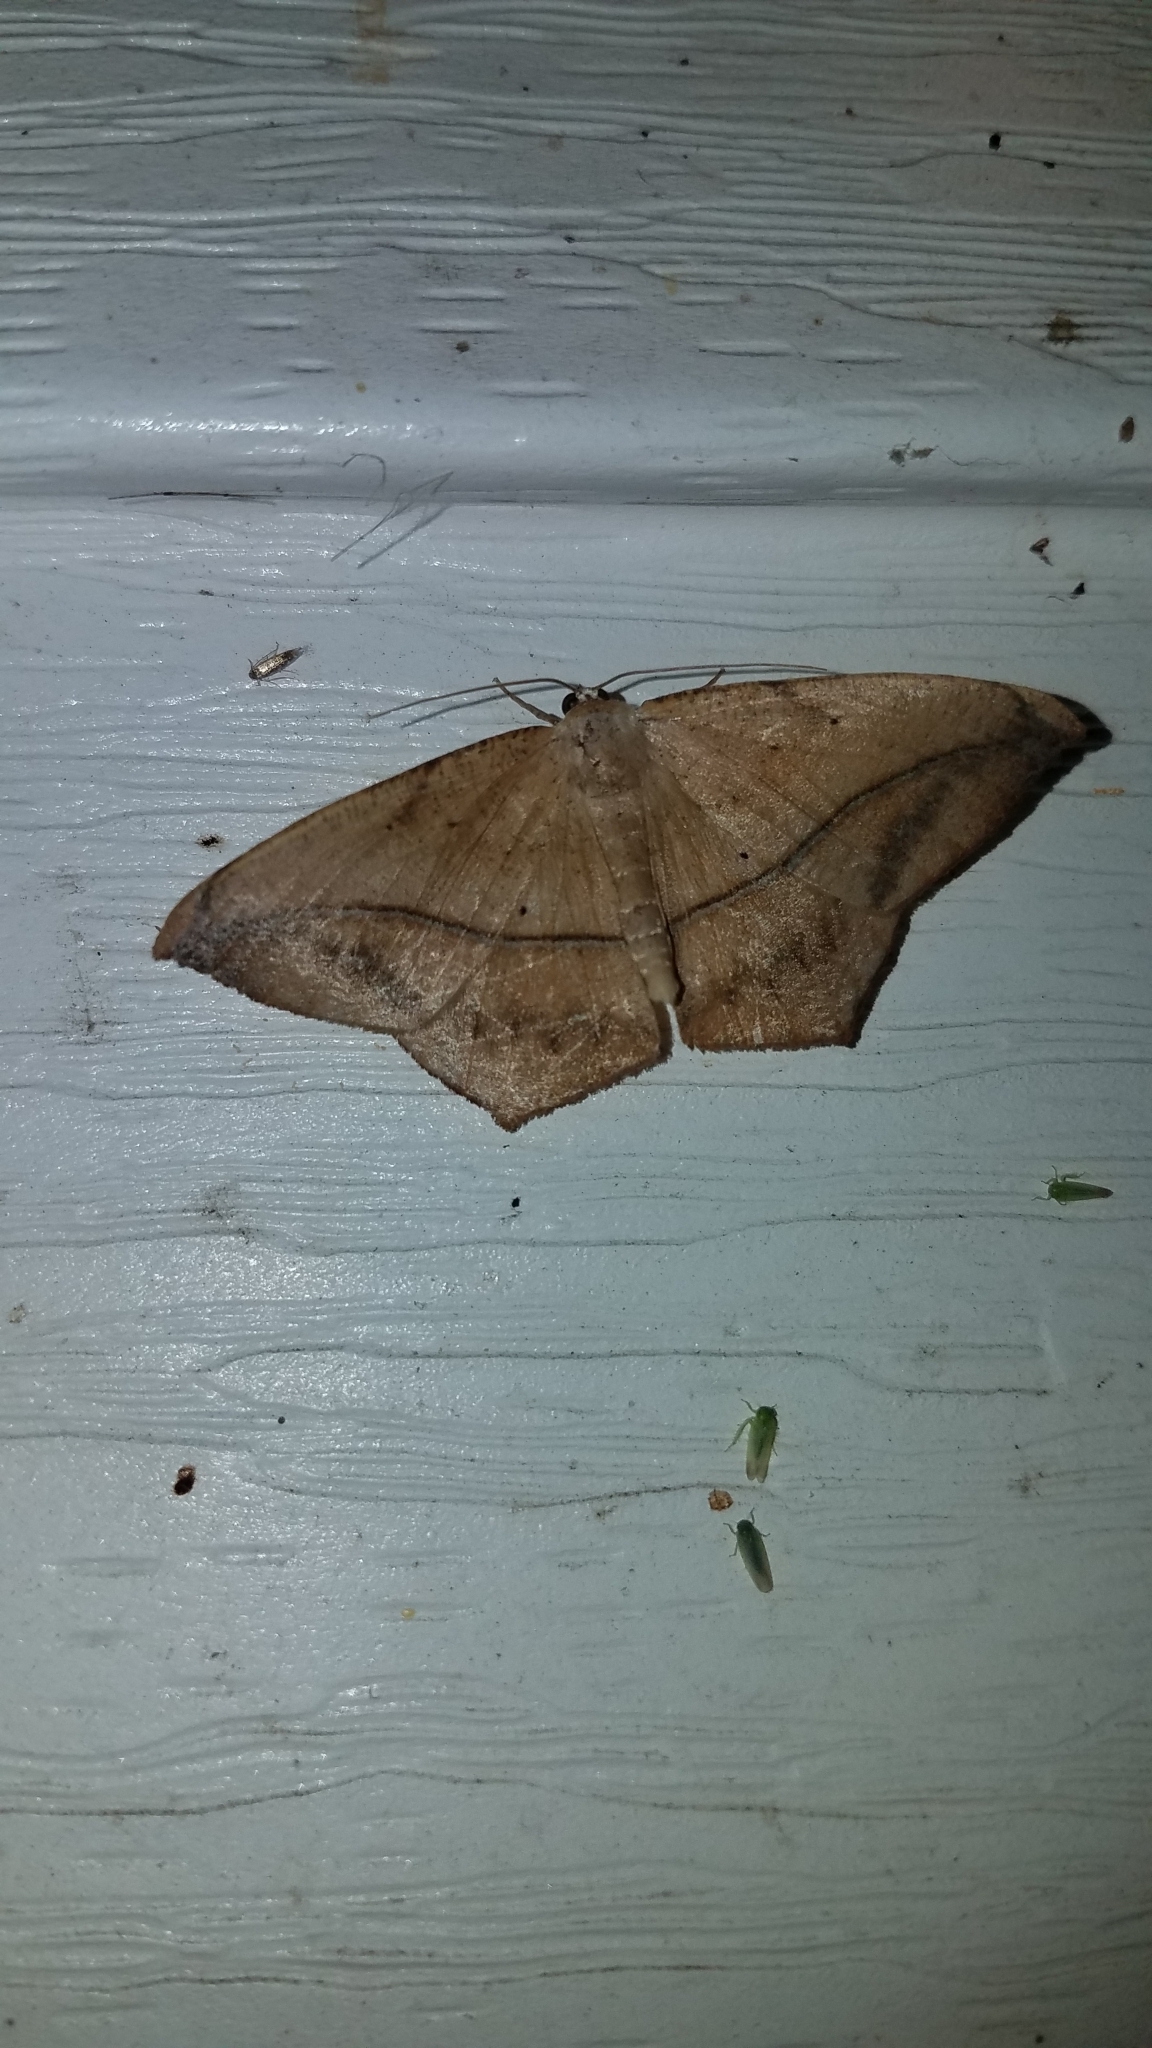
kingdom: Animalia
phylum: Arthropoda
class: Insecta
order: Lepidoptera
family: Geometridae
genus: Prochoerodes
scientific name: Prochoerodes lineola
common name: Large maple spanworm
